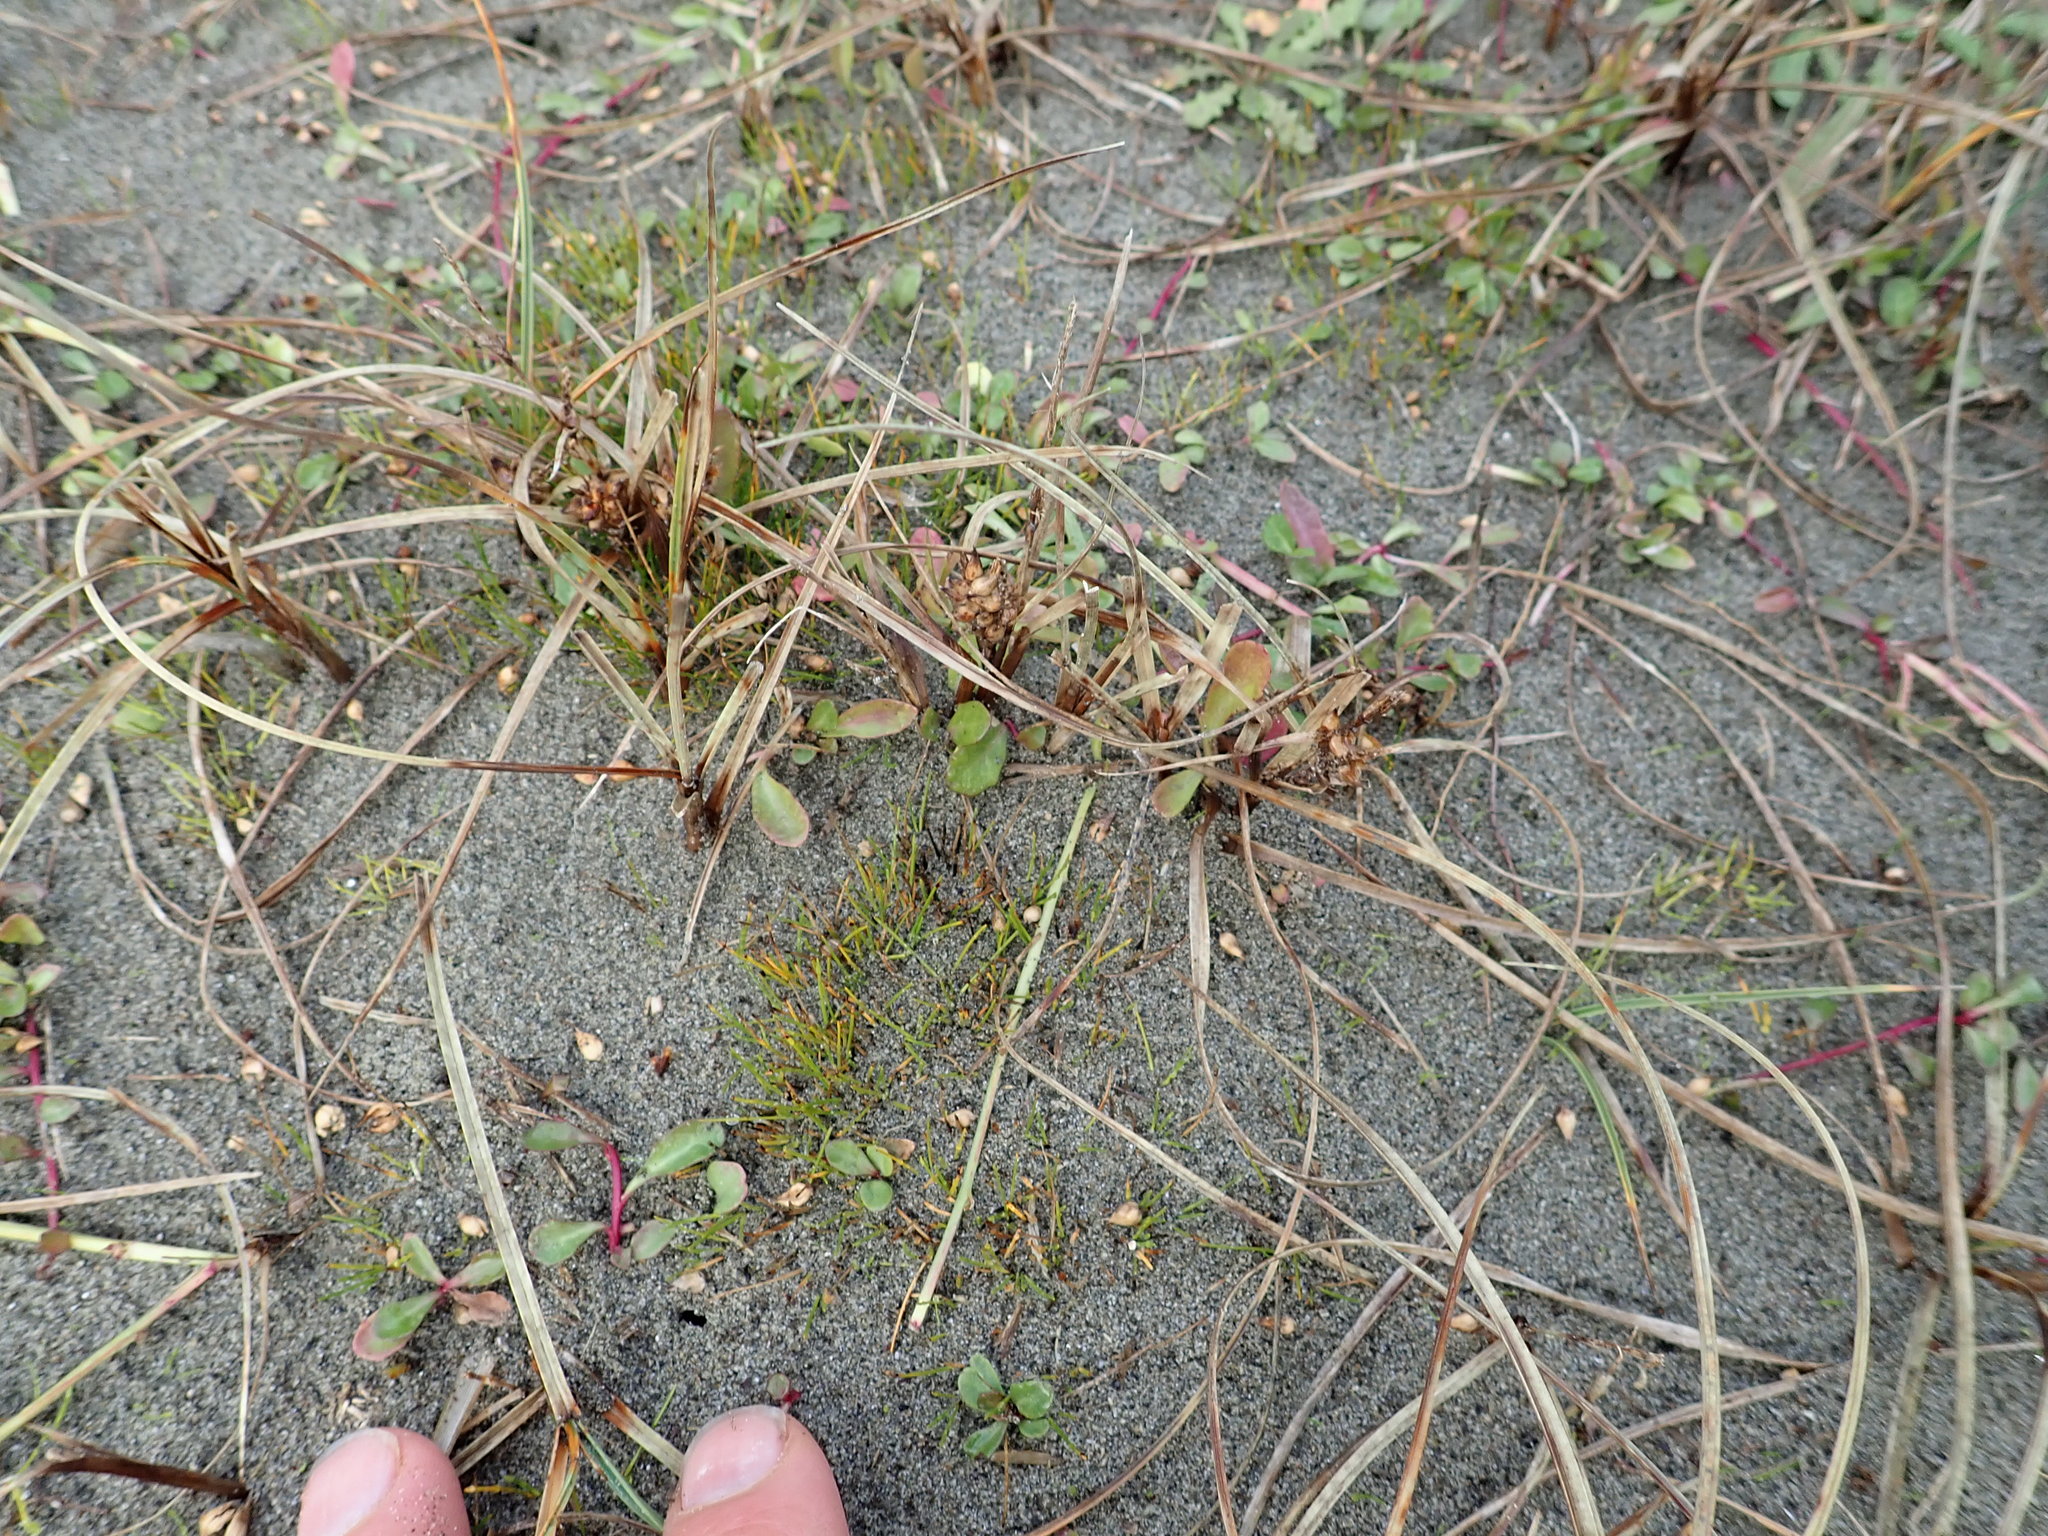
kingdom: Plantae
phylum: Tracheophyta
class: Liliopsida
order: Poales
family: Cyperaceae
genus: Carex
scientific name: Carex pumila
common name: Dwarf sedge
